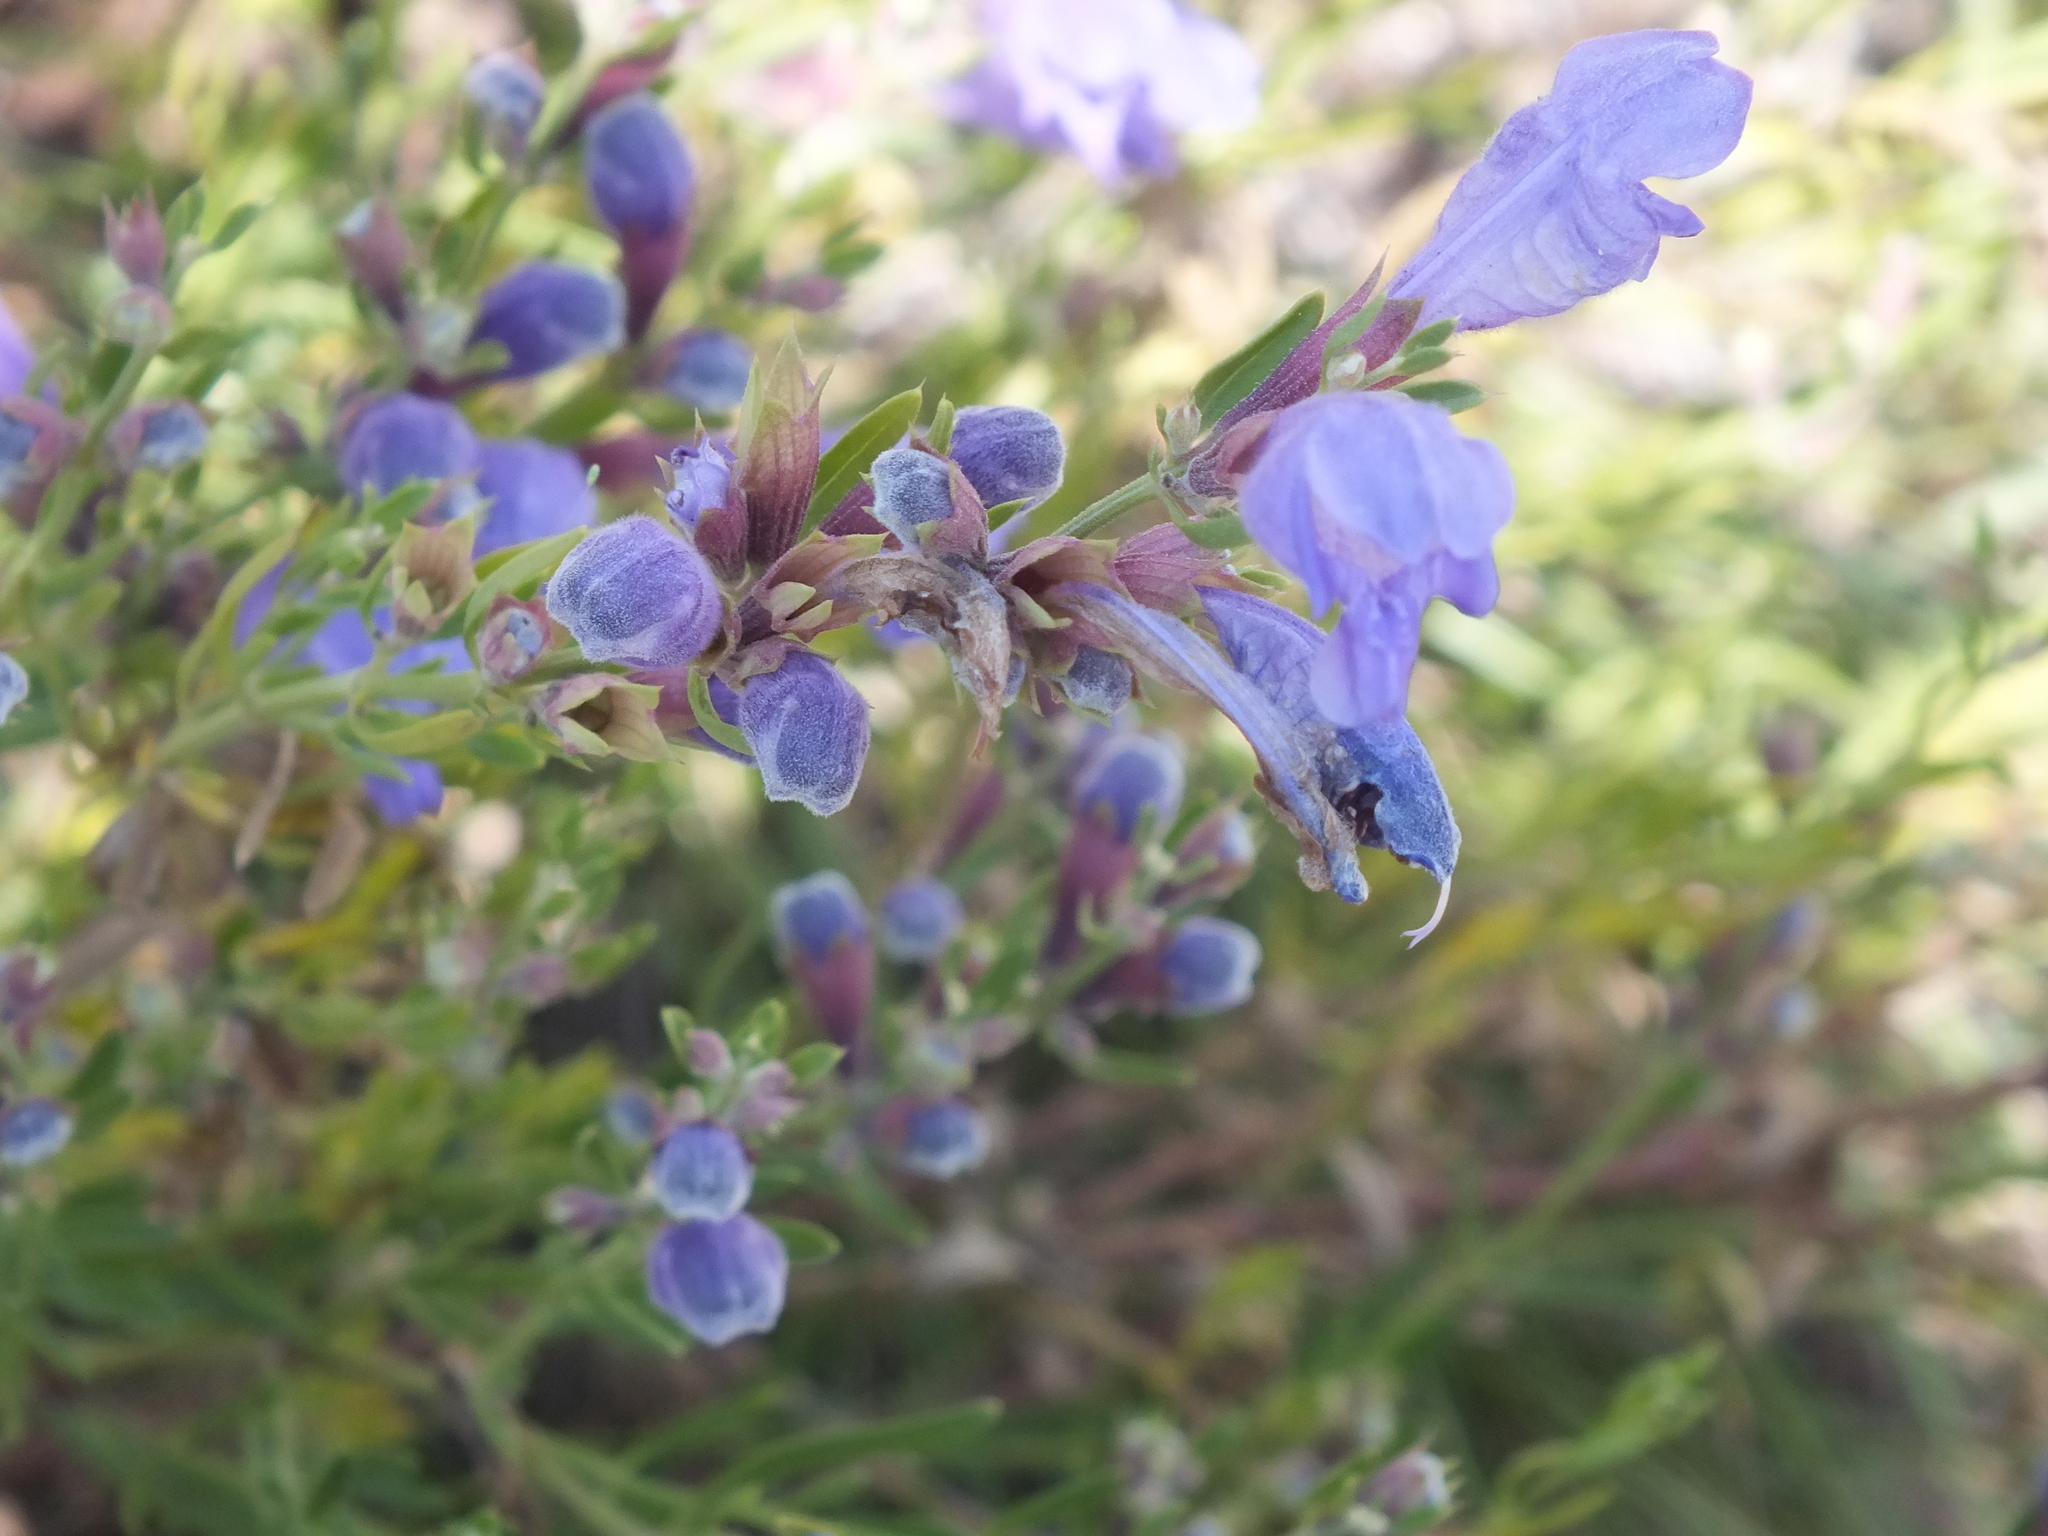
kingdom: Plantae
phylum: Tracheophyta
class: Magnoliopsida
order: Lamiales
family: Lamiaceae
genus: Dracocephalum
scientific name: Dracocephalum peregrinum
